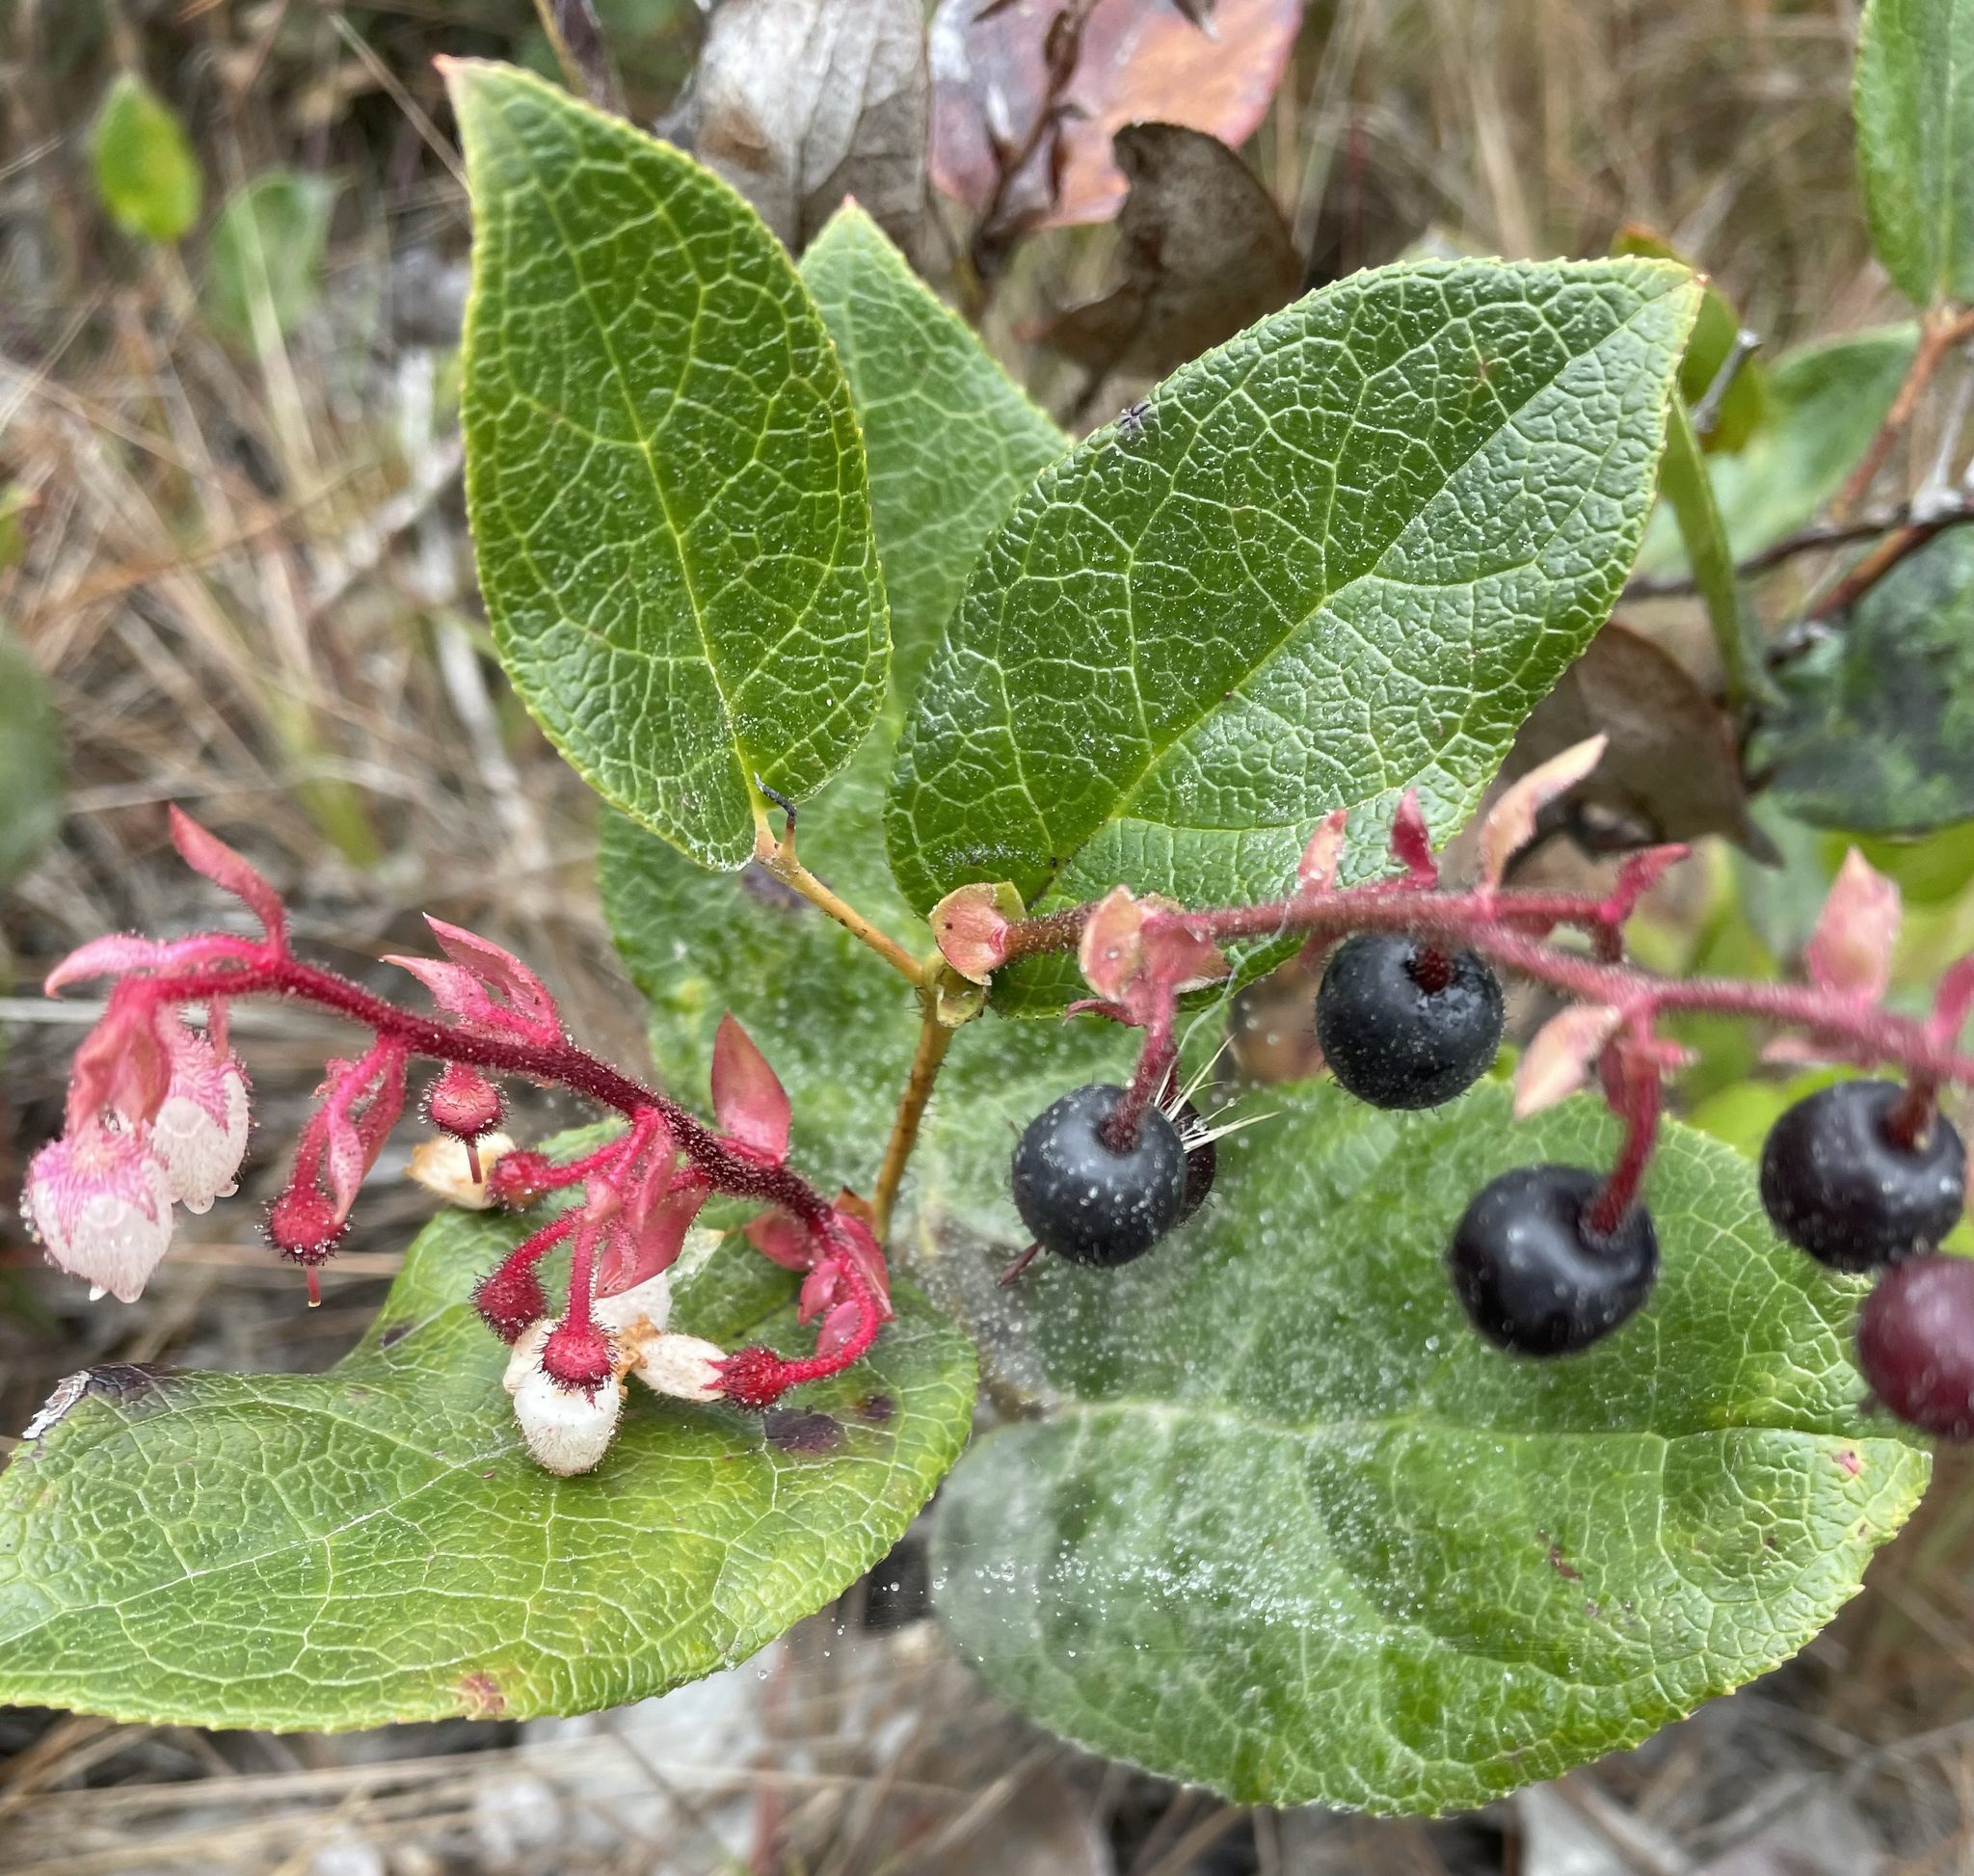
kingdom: Plantae
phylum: Tracheophyta
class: Magnoliopsida
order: Ericales
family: Ericaceae
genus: Gaultheria
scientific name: Gaultheria shallon
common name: Shallon
